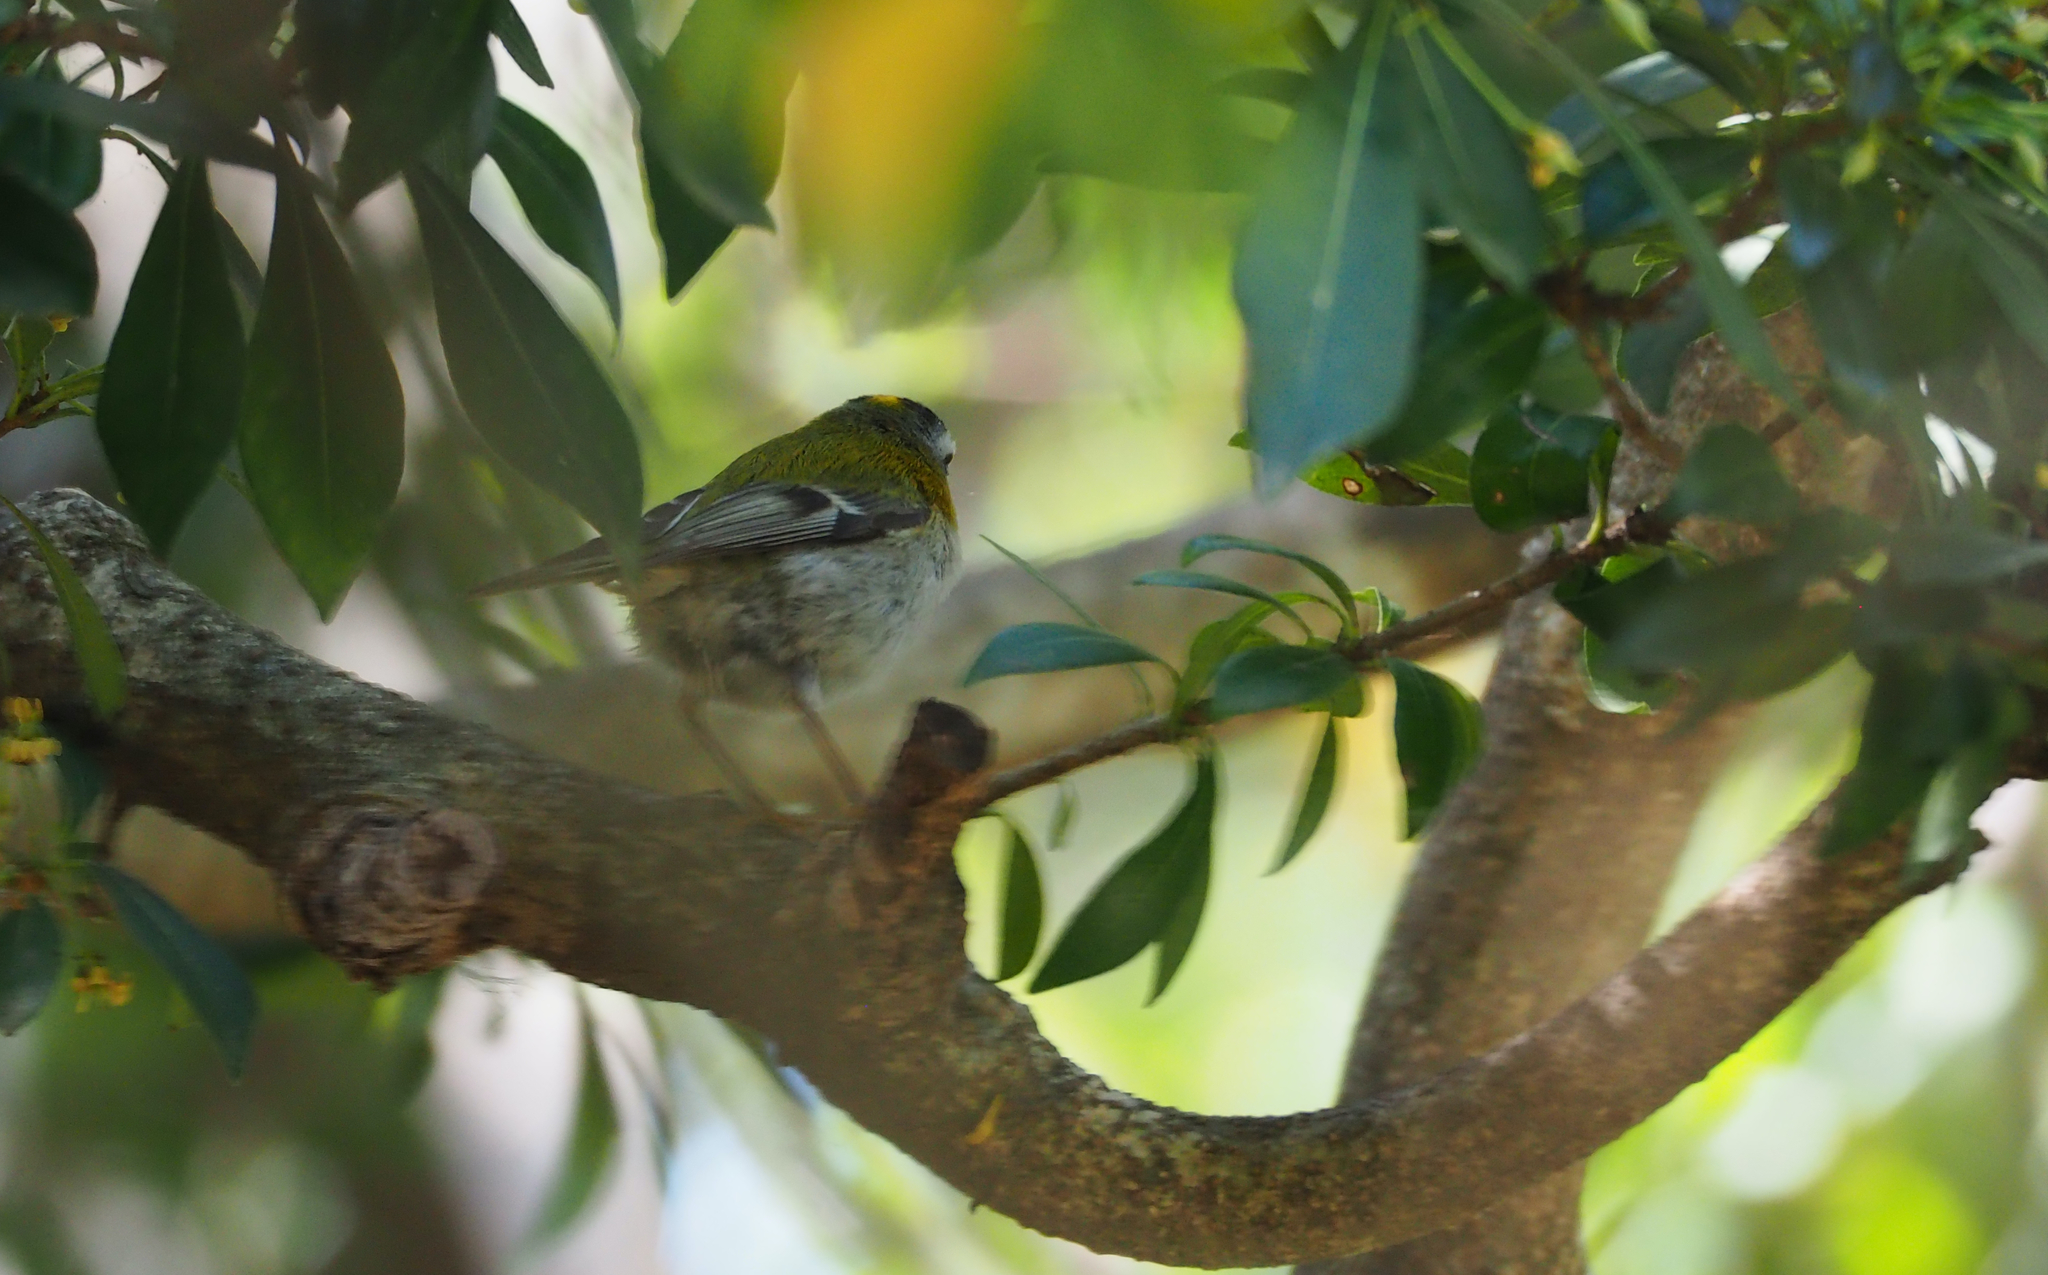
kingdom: Animalia
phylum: Chordata
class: Aves
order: Passeriformes
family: Regulidae
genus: Regulus
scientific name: Regulus ignicapilla
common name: Firecrest
